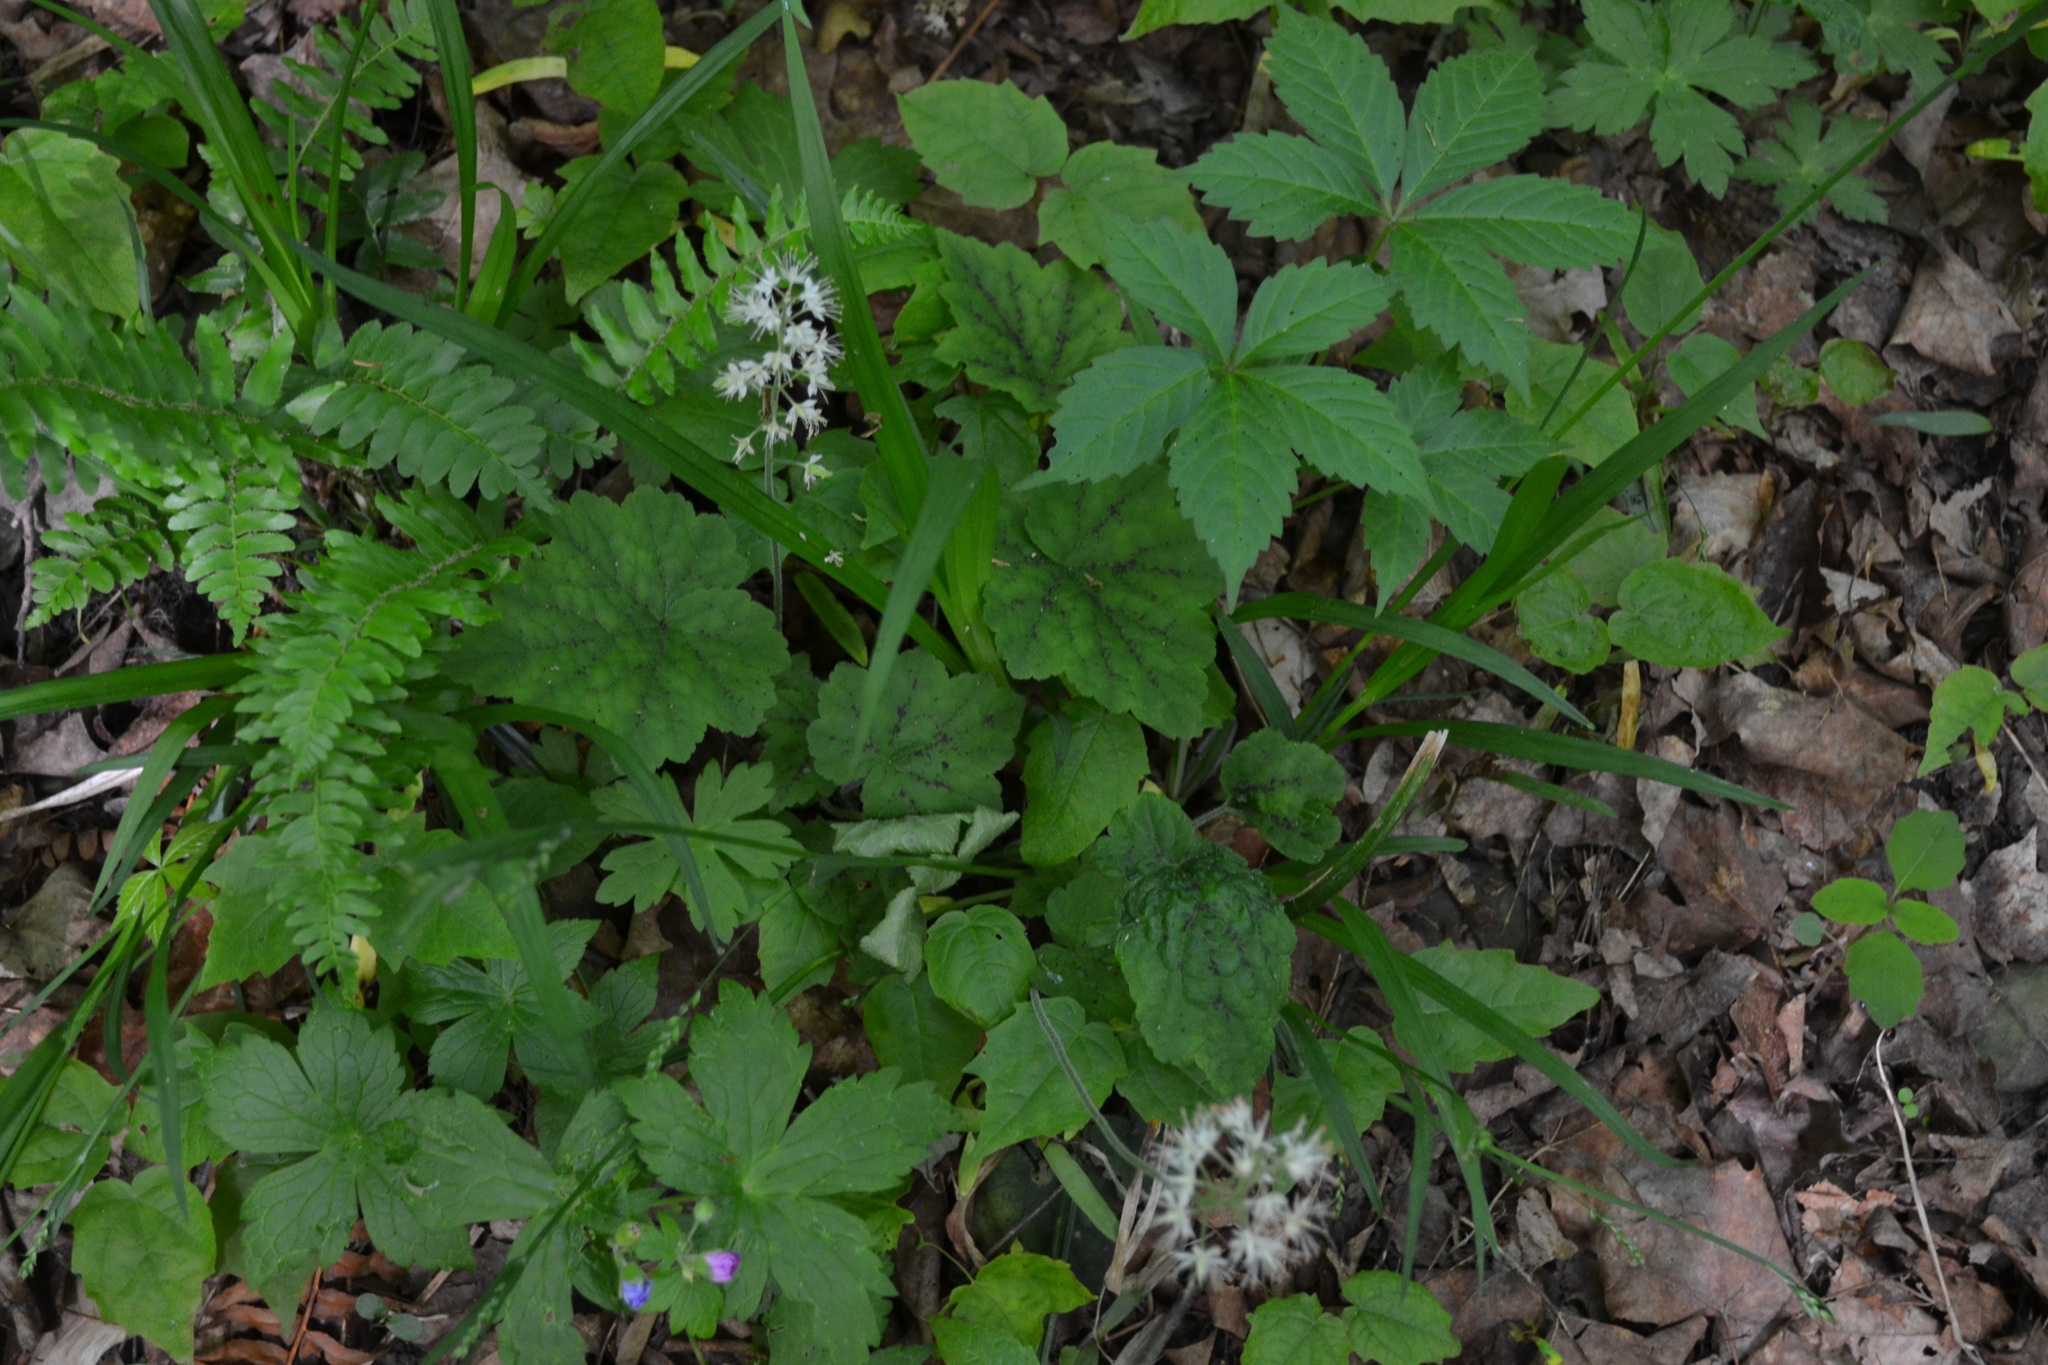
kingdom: Plantae
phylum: Tracheophyta
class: Magnoliopsida
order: Saxifragales
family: Saxifragaceae
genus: Tiarella
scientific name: Tiarella stolonifera
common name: Stoloniferous foamflower
